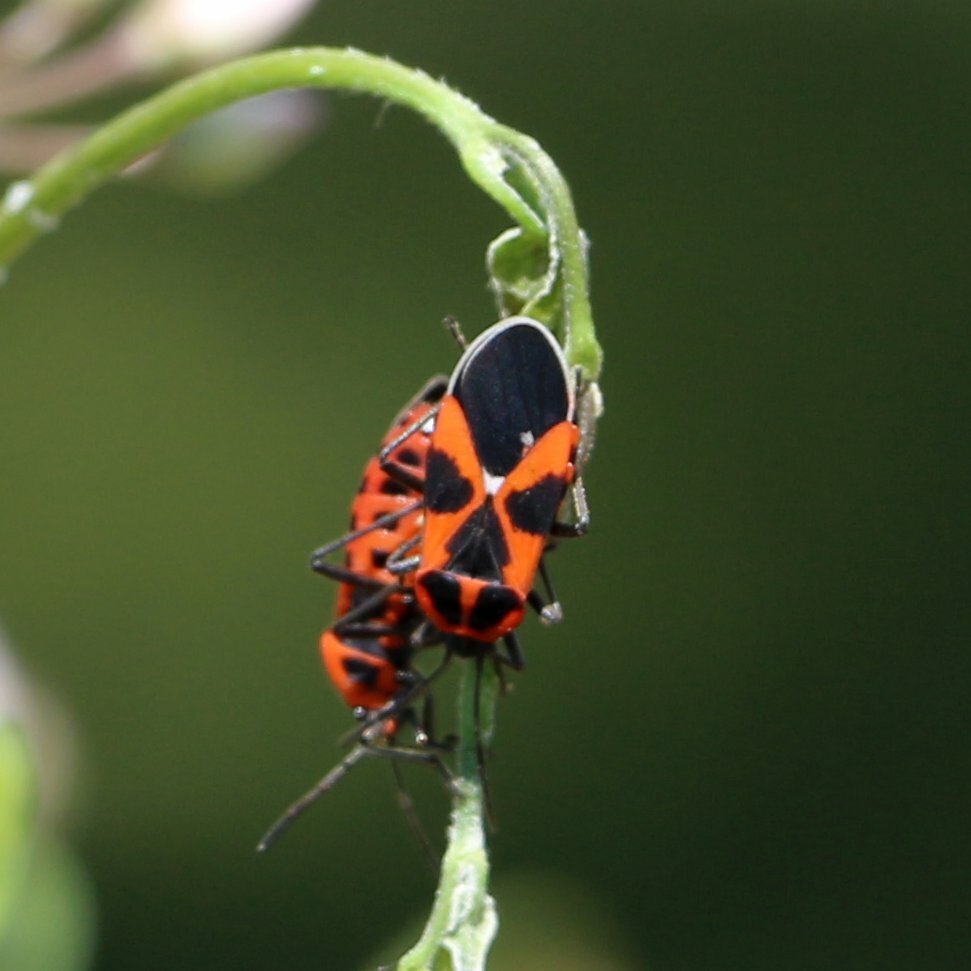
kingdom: Animalia
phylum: Arthropoda
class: Insecta
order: Hemiptera
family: Lygaeidae
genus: Tropidothorax
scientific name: Tropidothorax leucopterus
